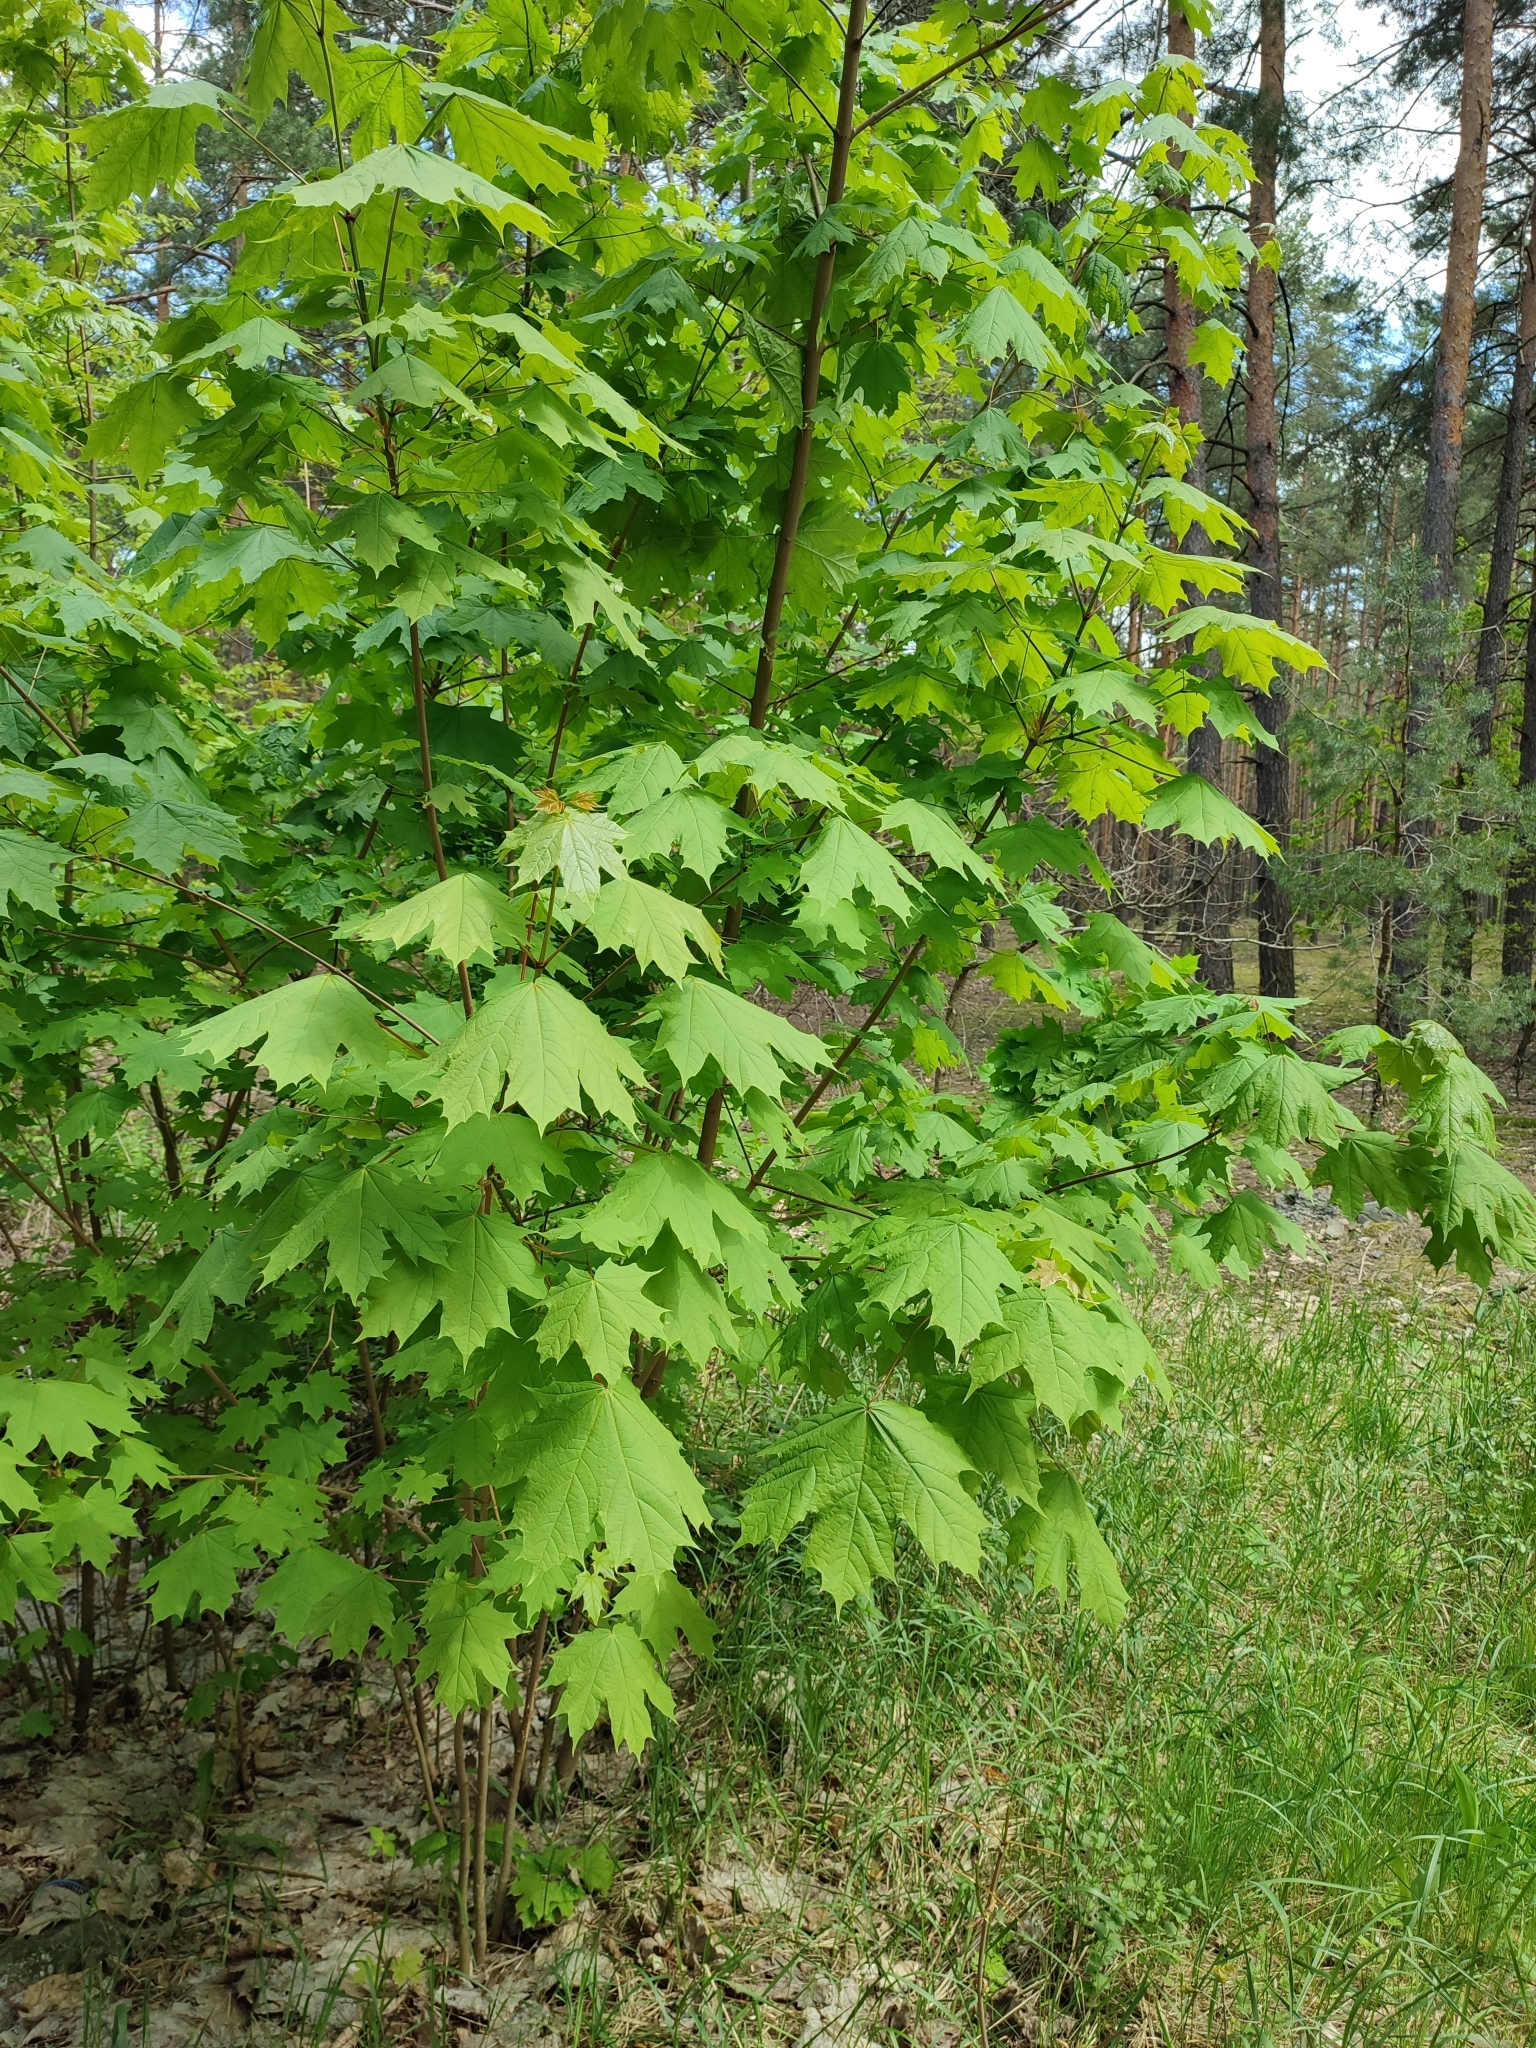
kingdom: Plantae
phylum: Tracheophyta
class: Magnoliopsida
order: Sapindales
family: Sapindaceae
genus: Acer
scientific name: Acer platanoides
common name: Norway maple
